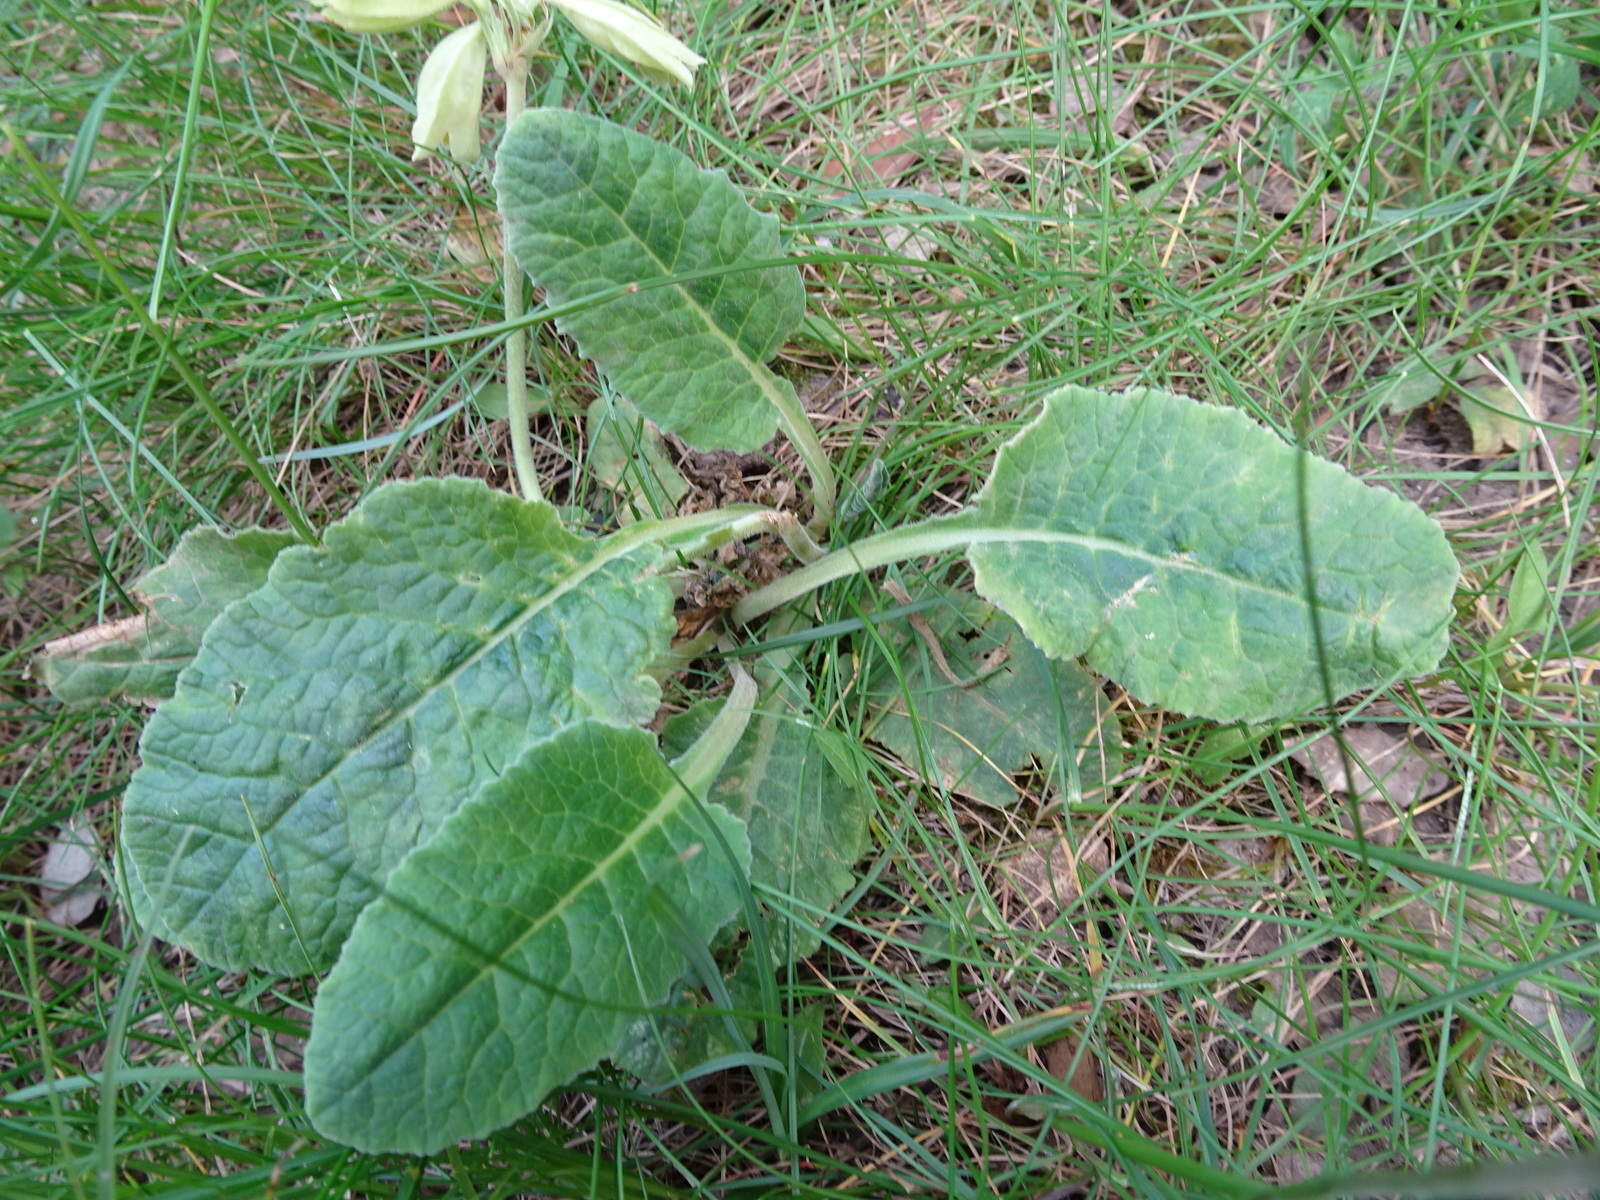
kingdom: Plantae
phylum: Tracheophyta
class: Magnoliopsida
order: Ericales
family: Primulaceae
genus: Primula
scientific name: Primula veris
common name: Cowslip
